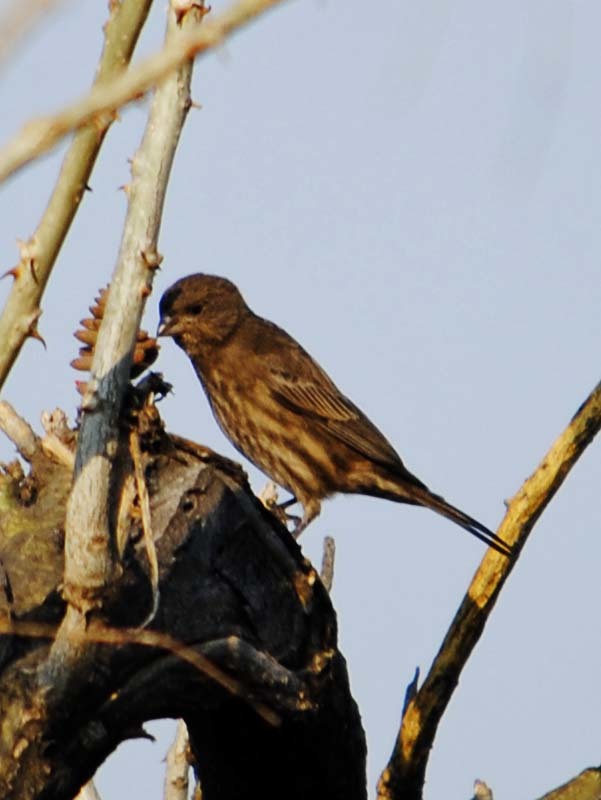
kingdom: Animalia
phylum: Chordata
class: Aves
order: Passeriformes
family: Fringillidae
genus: Haemorhous
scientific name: Haemorhous mexicanus
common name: House finch
